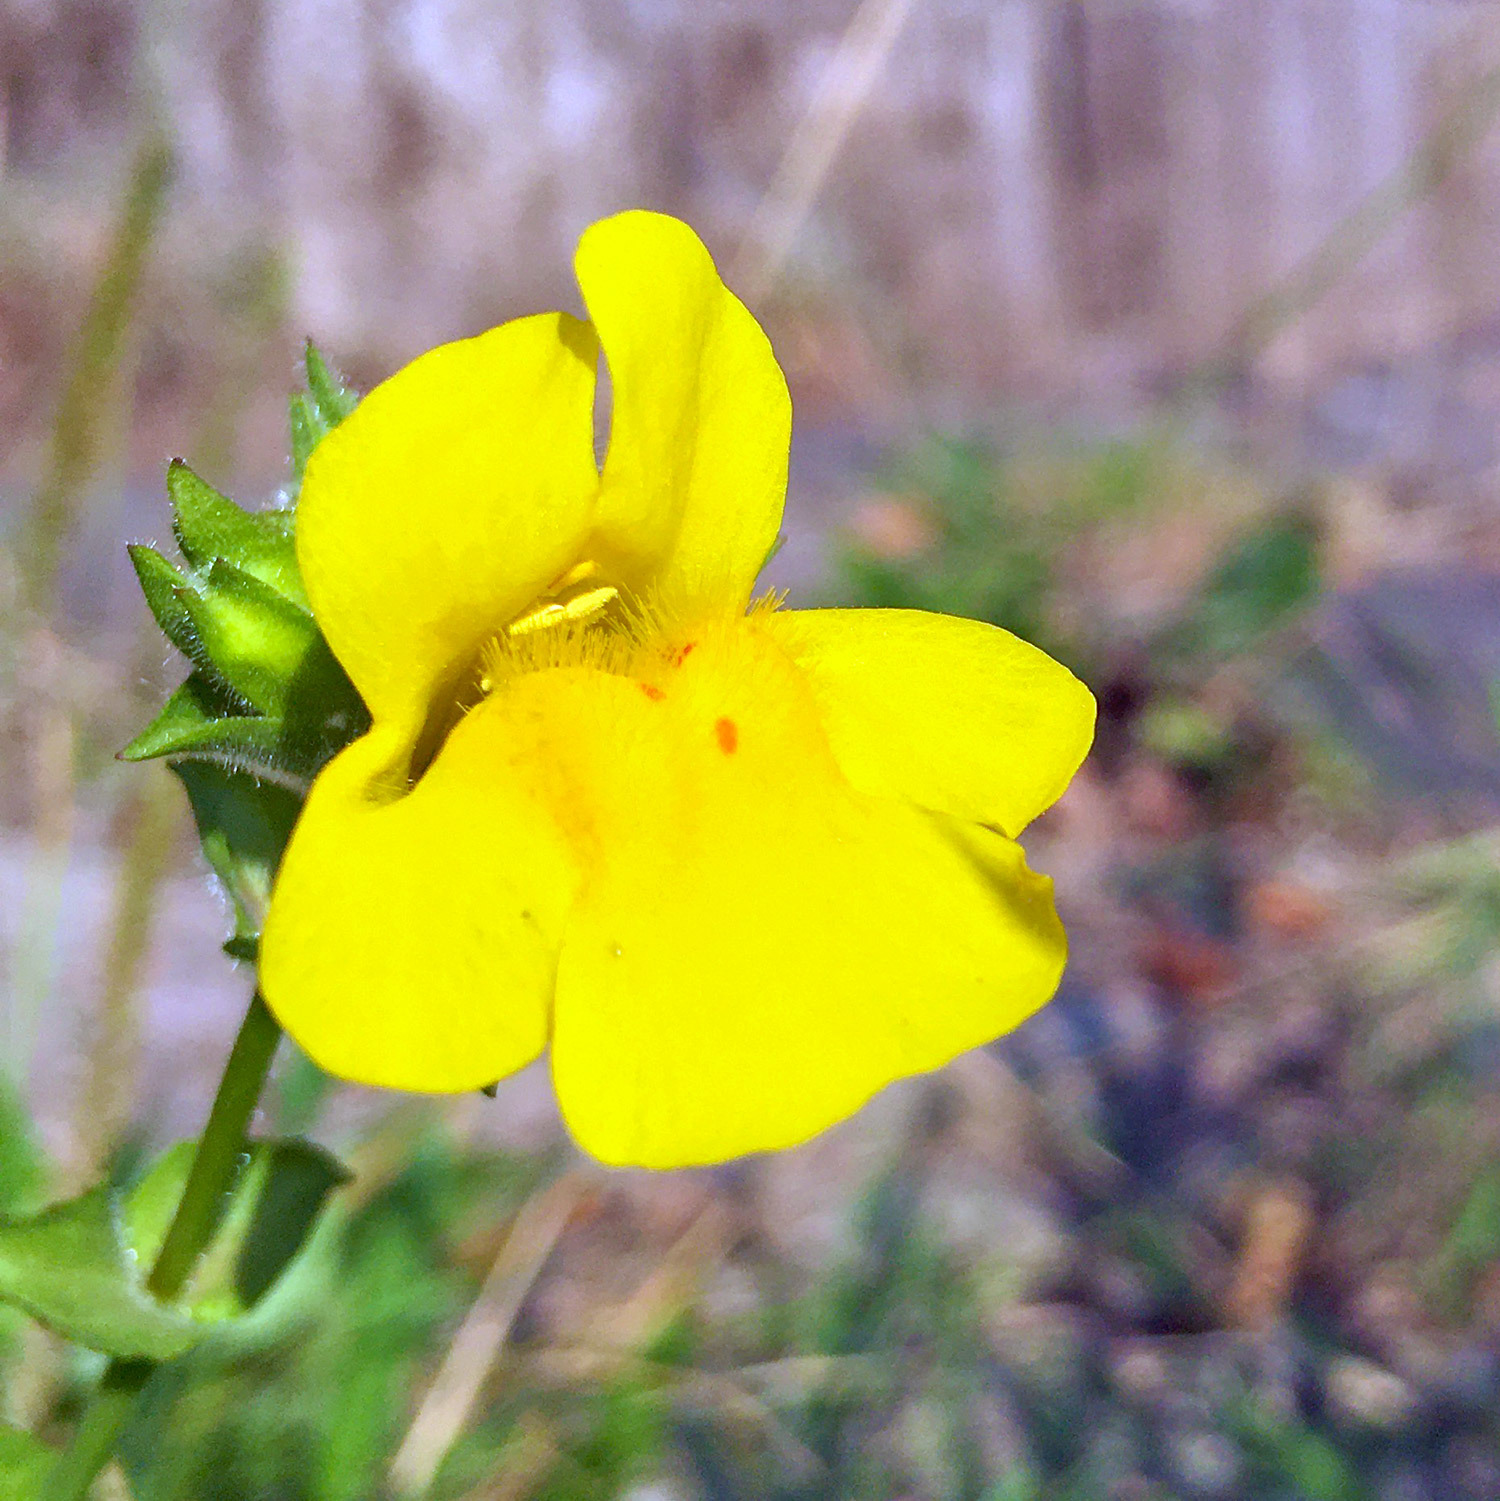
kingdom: Plantae
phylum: Tracheophyta
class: Magnoliopsida
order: Lamiales
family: Phrymaceae
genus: Erythranthe
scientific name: Erythranthe guttata
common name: Monkeyflower
